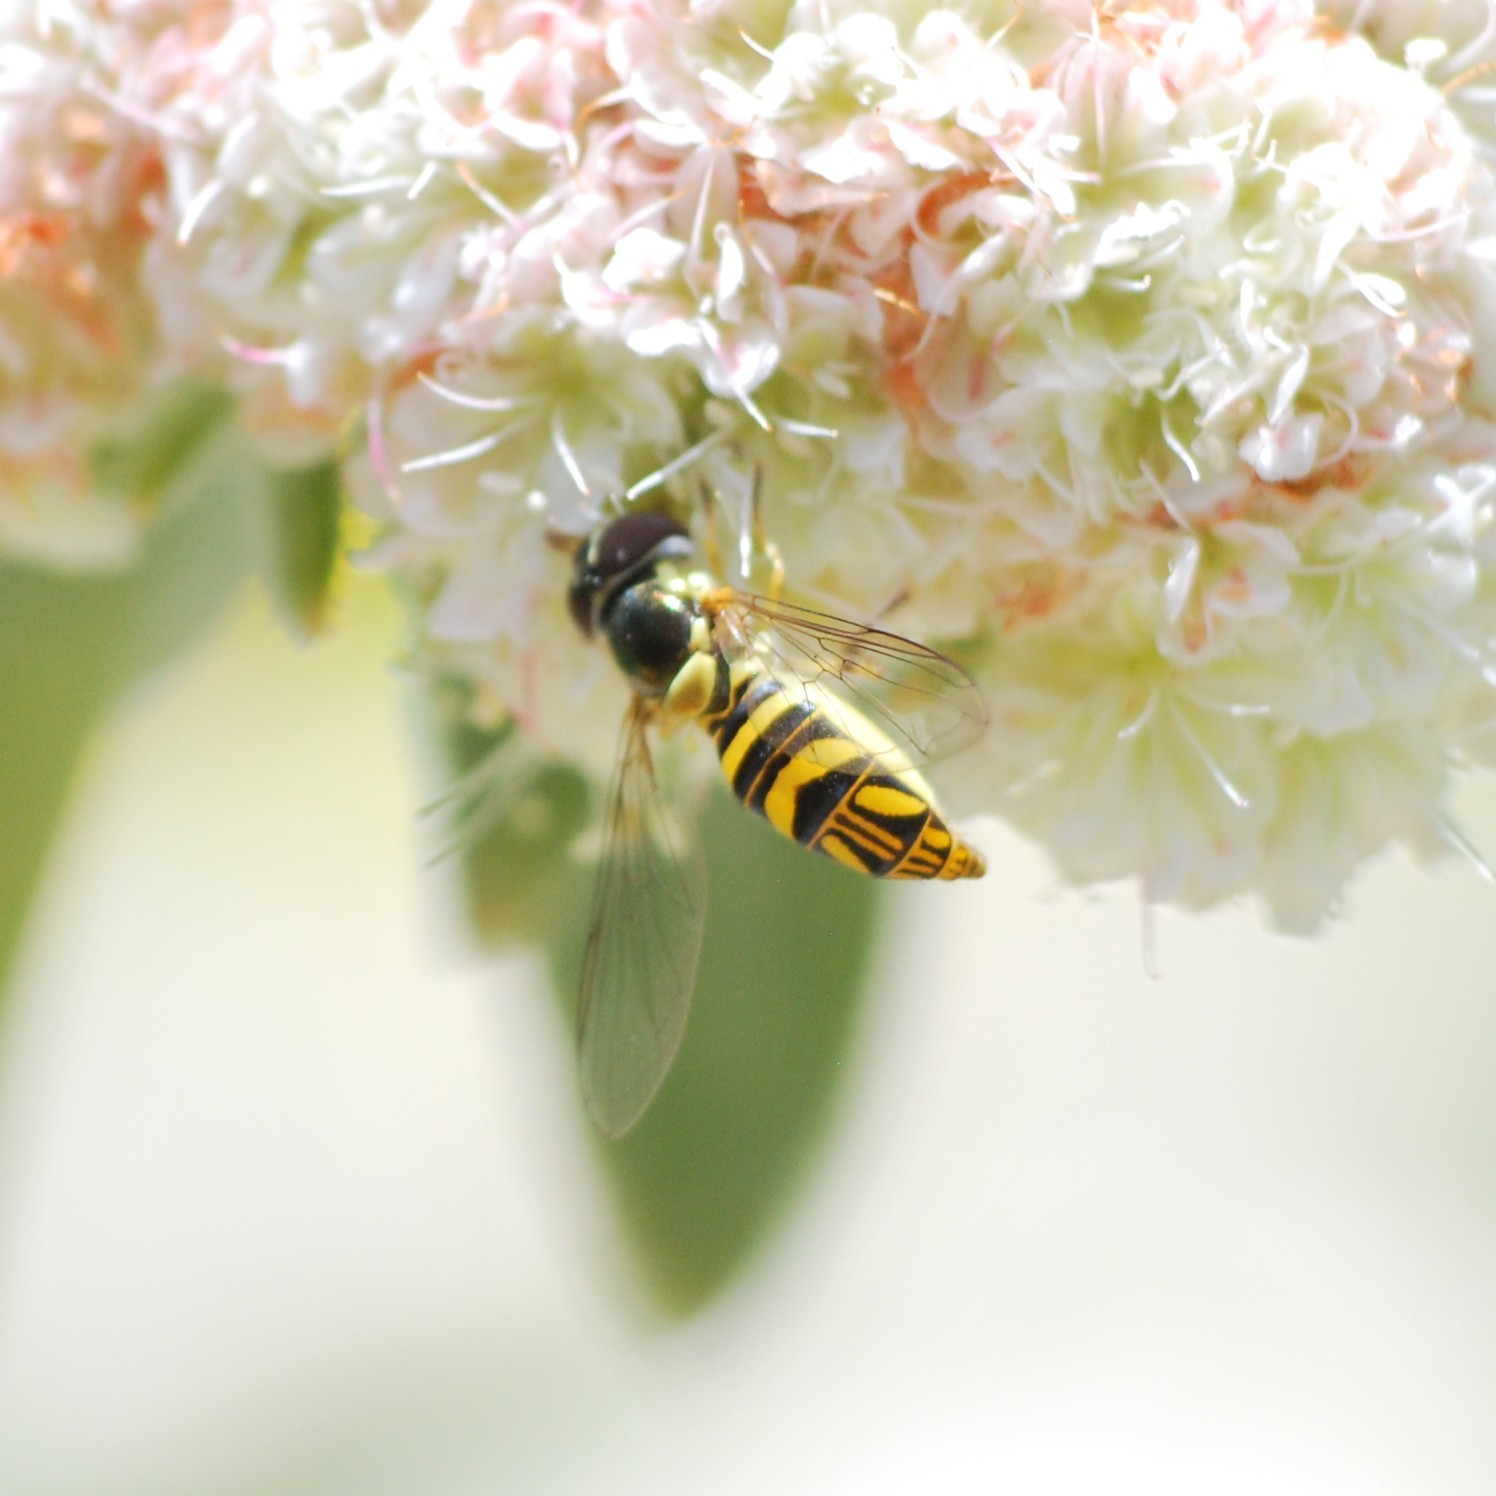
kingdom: Animalia
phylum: Arthropoda
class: Insecta
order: Diptera
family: Syrphidae
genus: Allograpta
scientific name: Allograpta obliqua
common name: Common oblique syrphid
